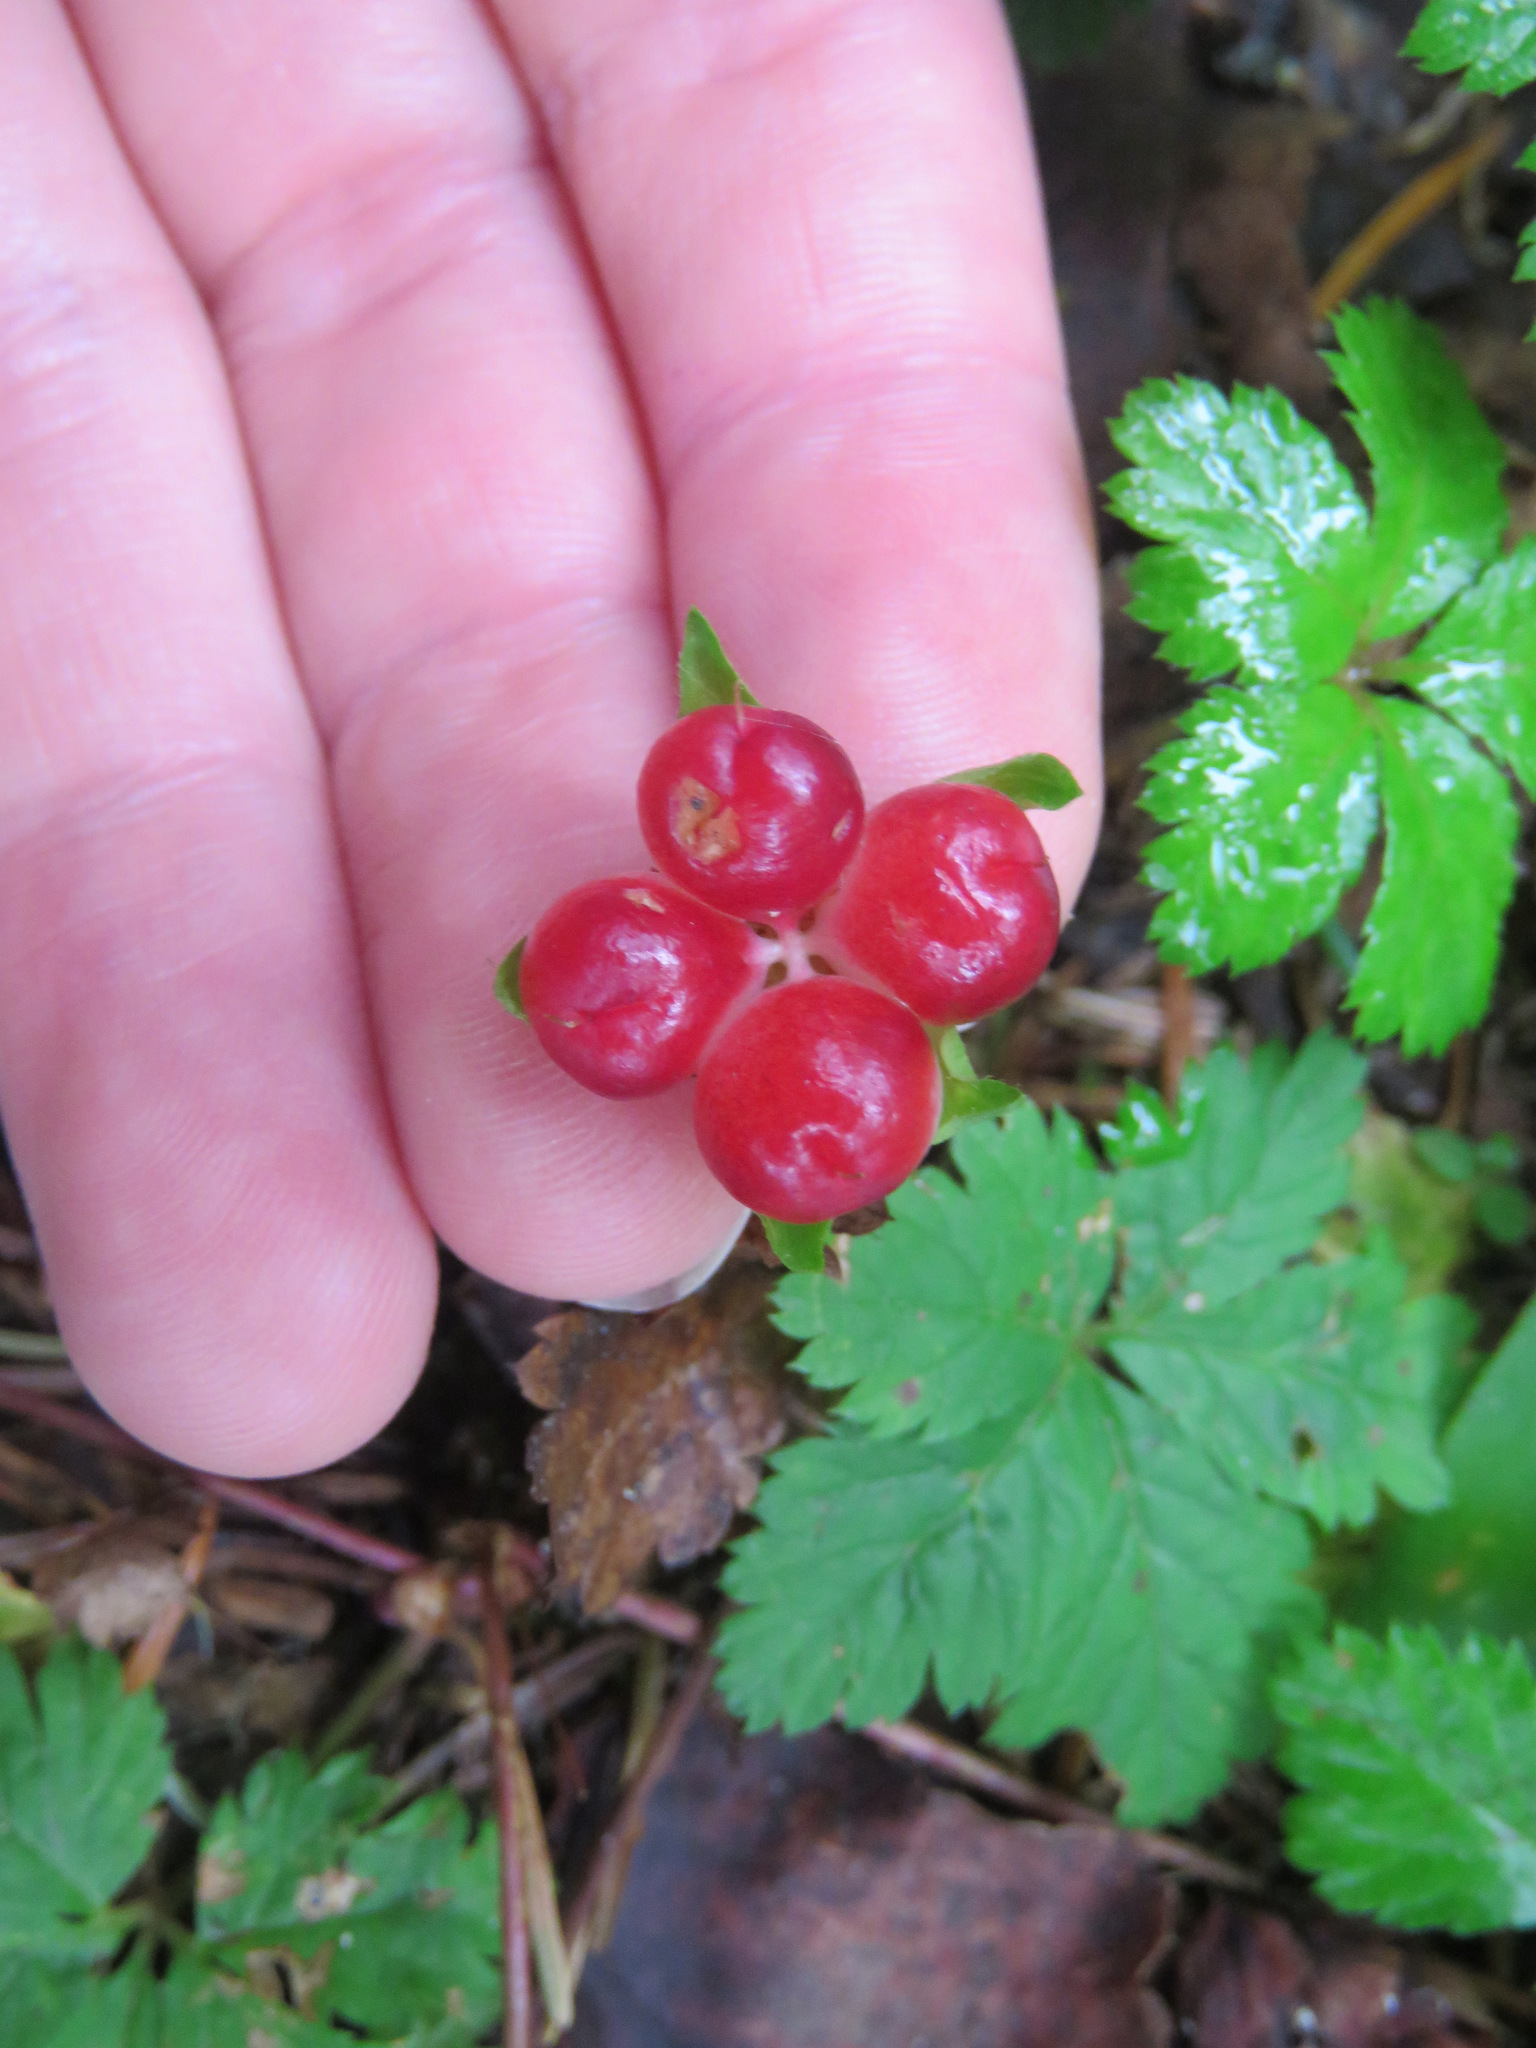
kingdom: Plantae
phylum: Tracheophyta
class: Magnoliopsida
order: Rosales
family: Rosaceae
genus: Rubus
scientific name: Rubus pedatus
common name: Creeping raspberry
